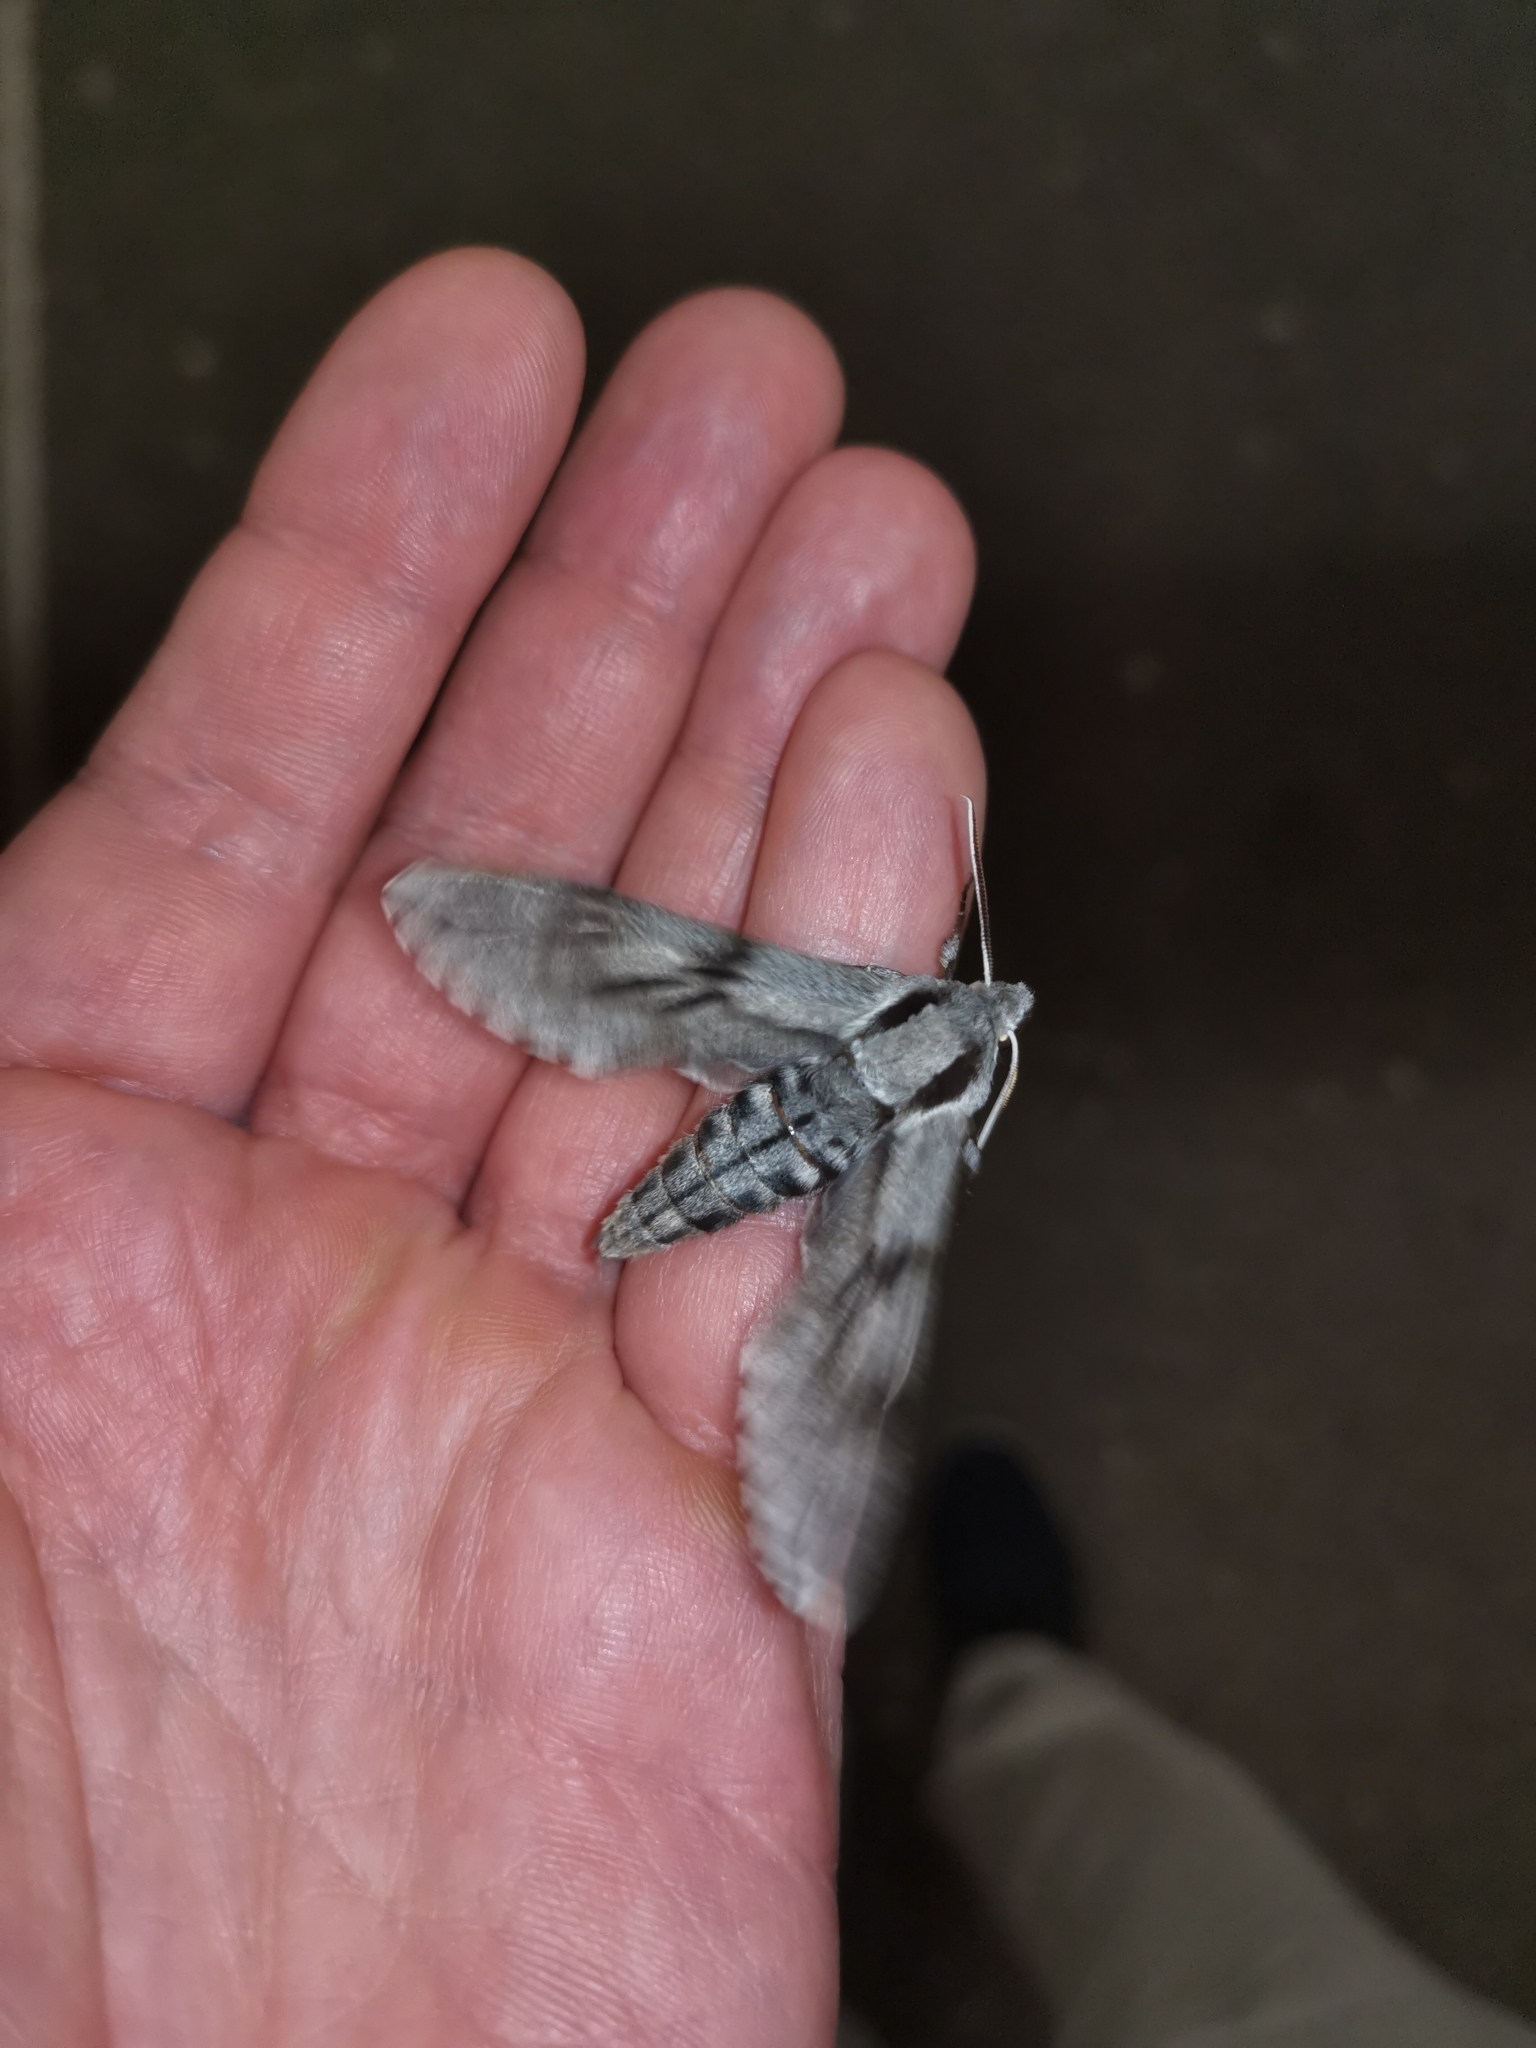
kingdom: Animalia
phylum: Arthropoda
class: Insecta
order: Lepidoptera
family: Sphingidae
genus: Sphinx
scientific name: Sphinx pinastri
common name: Pine hawk-moth
